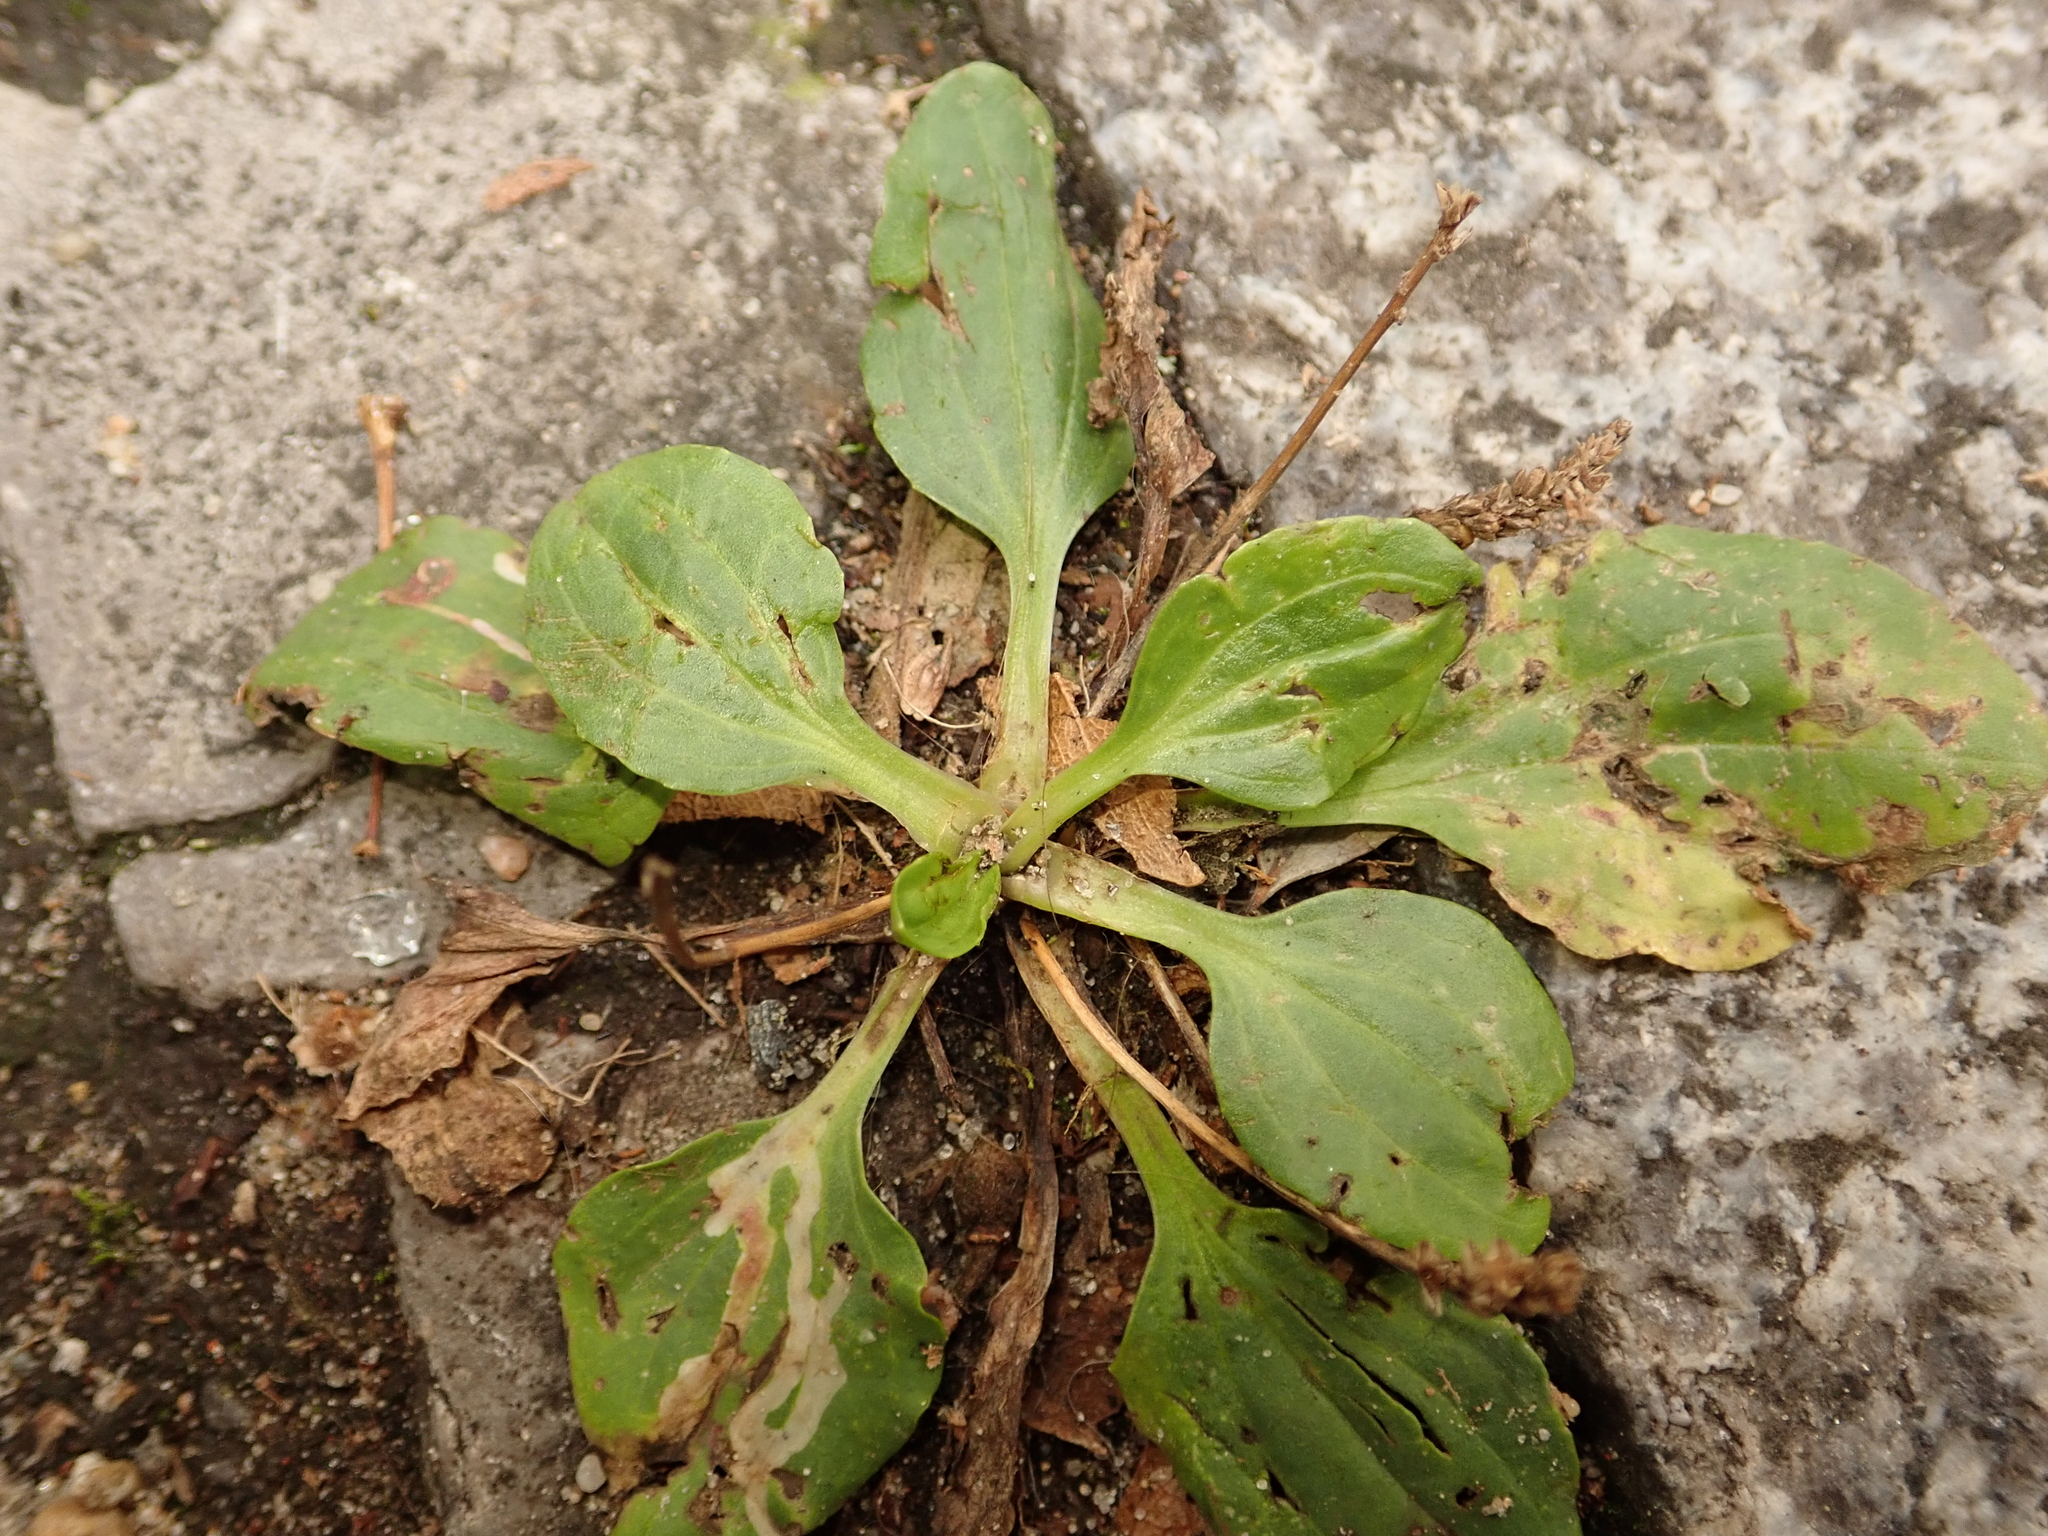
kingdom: Plantae
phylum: Tracheophyta
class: Magnoliopsida
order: Lamiales
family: Plantaginaceae
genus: Plantago
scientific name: Plantago major
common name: Common plantain
